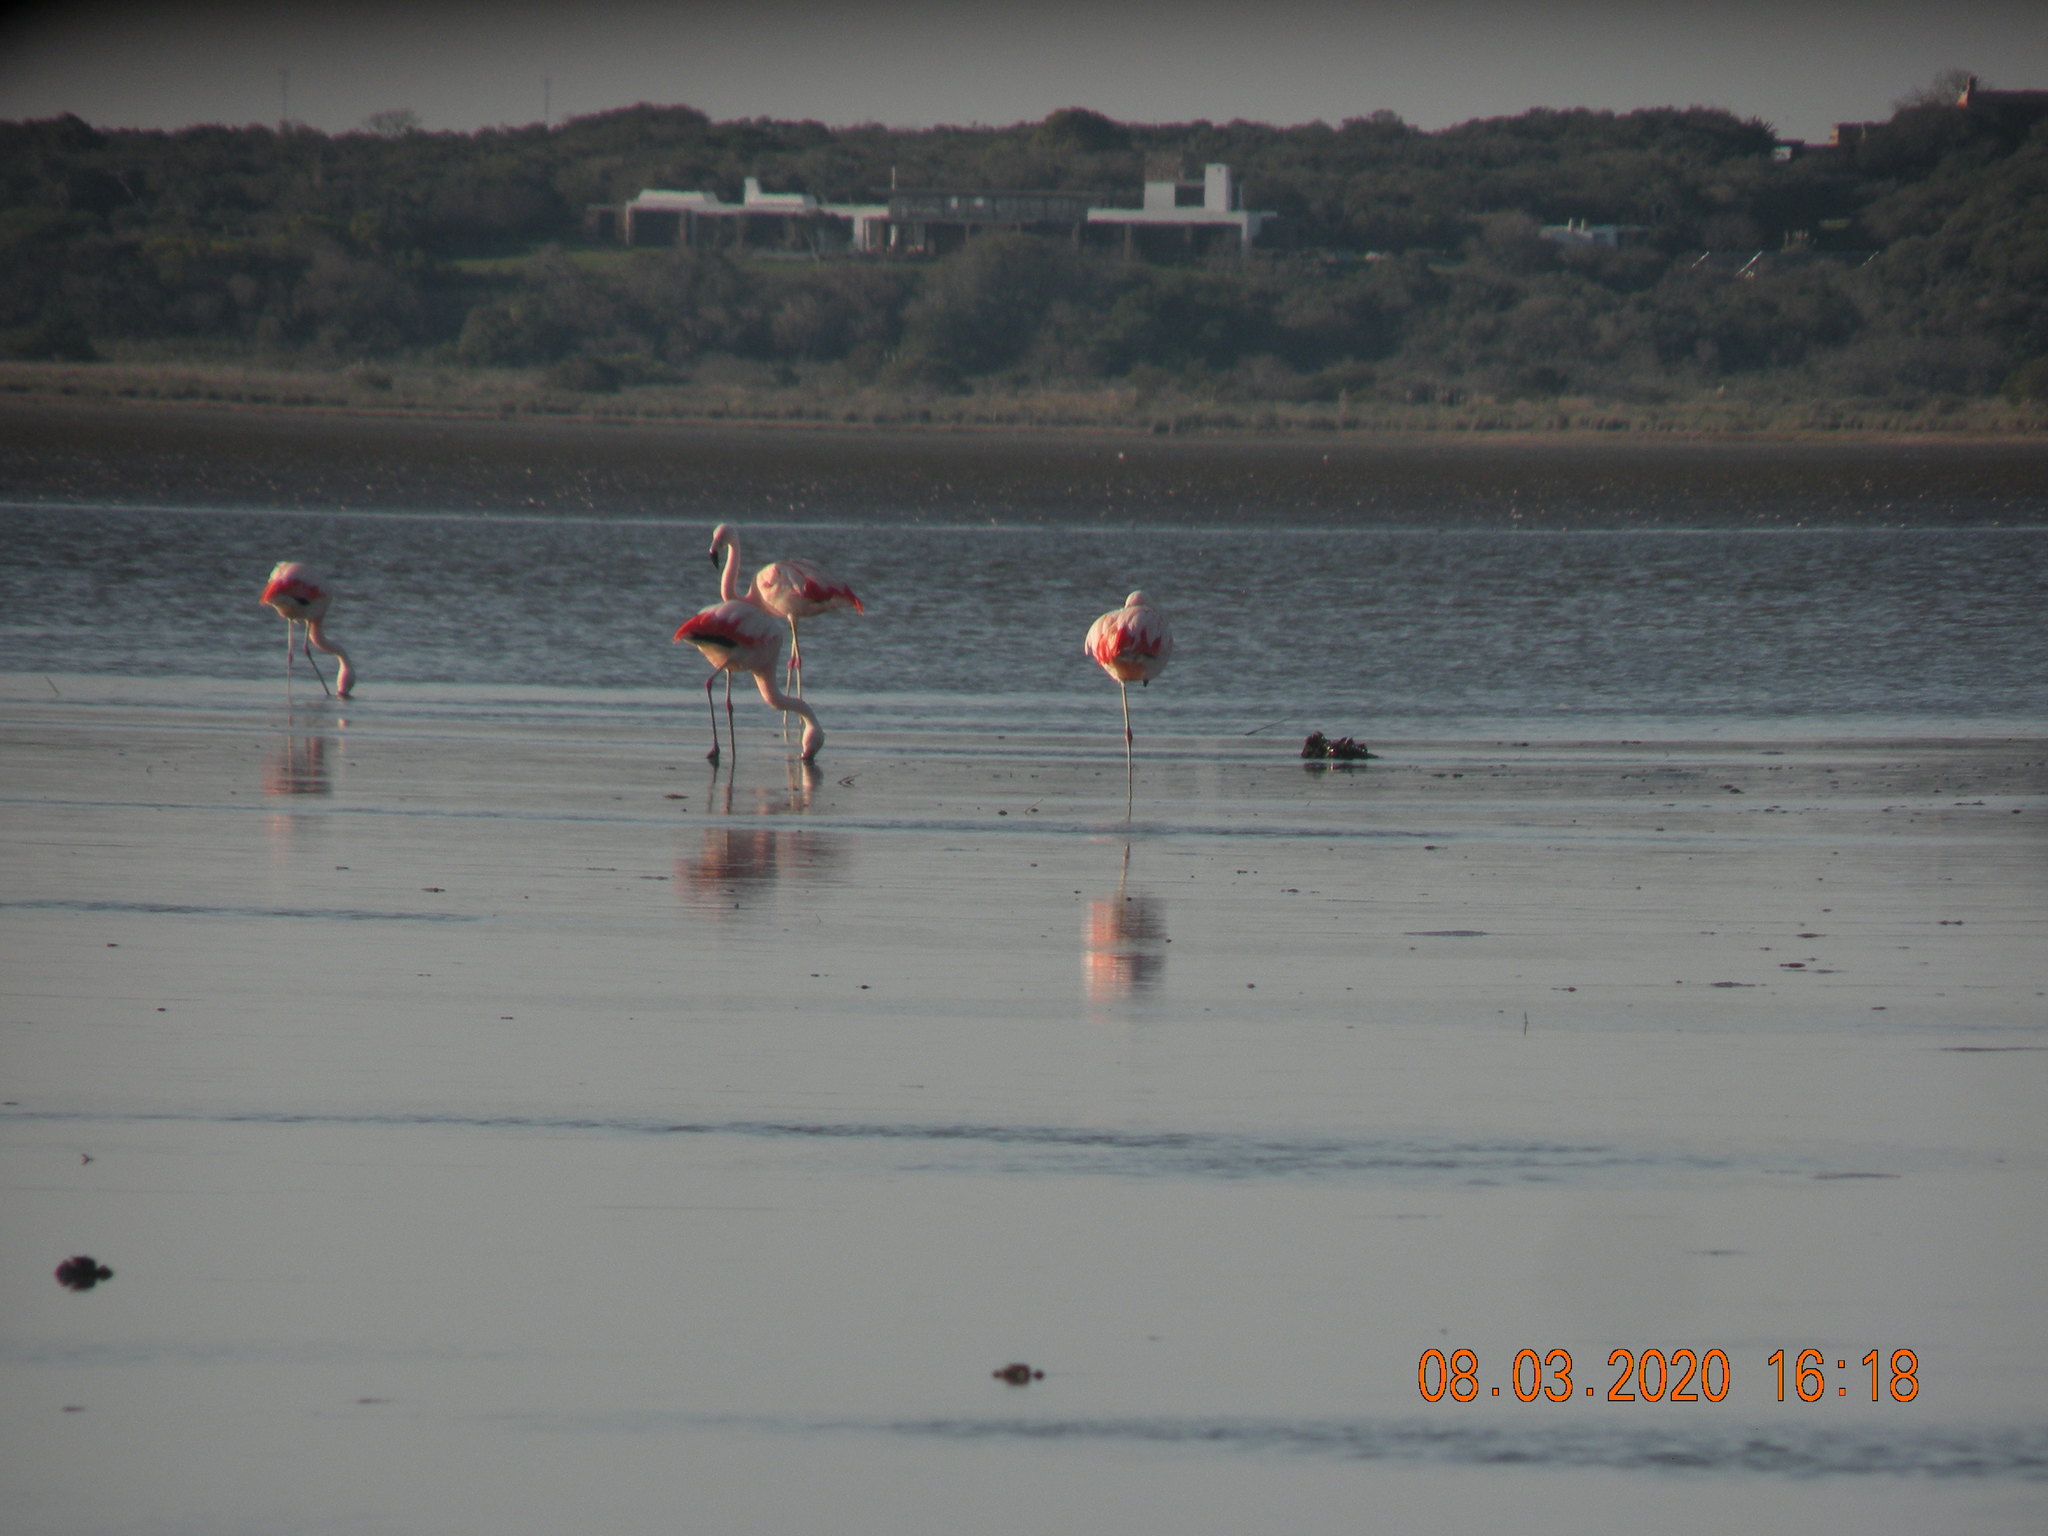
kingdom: Animalia
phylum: Chordata
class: Aves
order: Phoenicopteriformes
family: Phoenicopteridae
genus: Phoenicopterus
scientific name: Phoenicopterus chilensis
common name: Chilean flamingo
